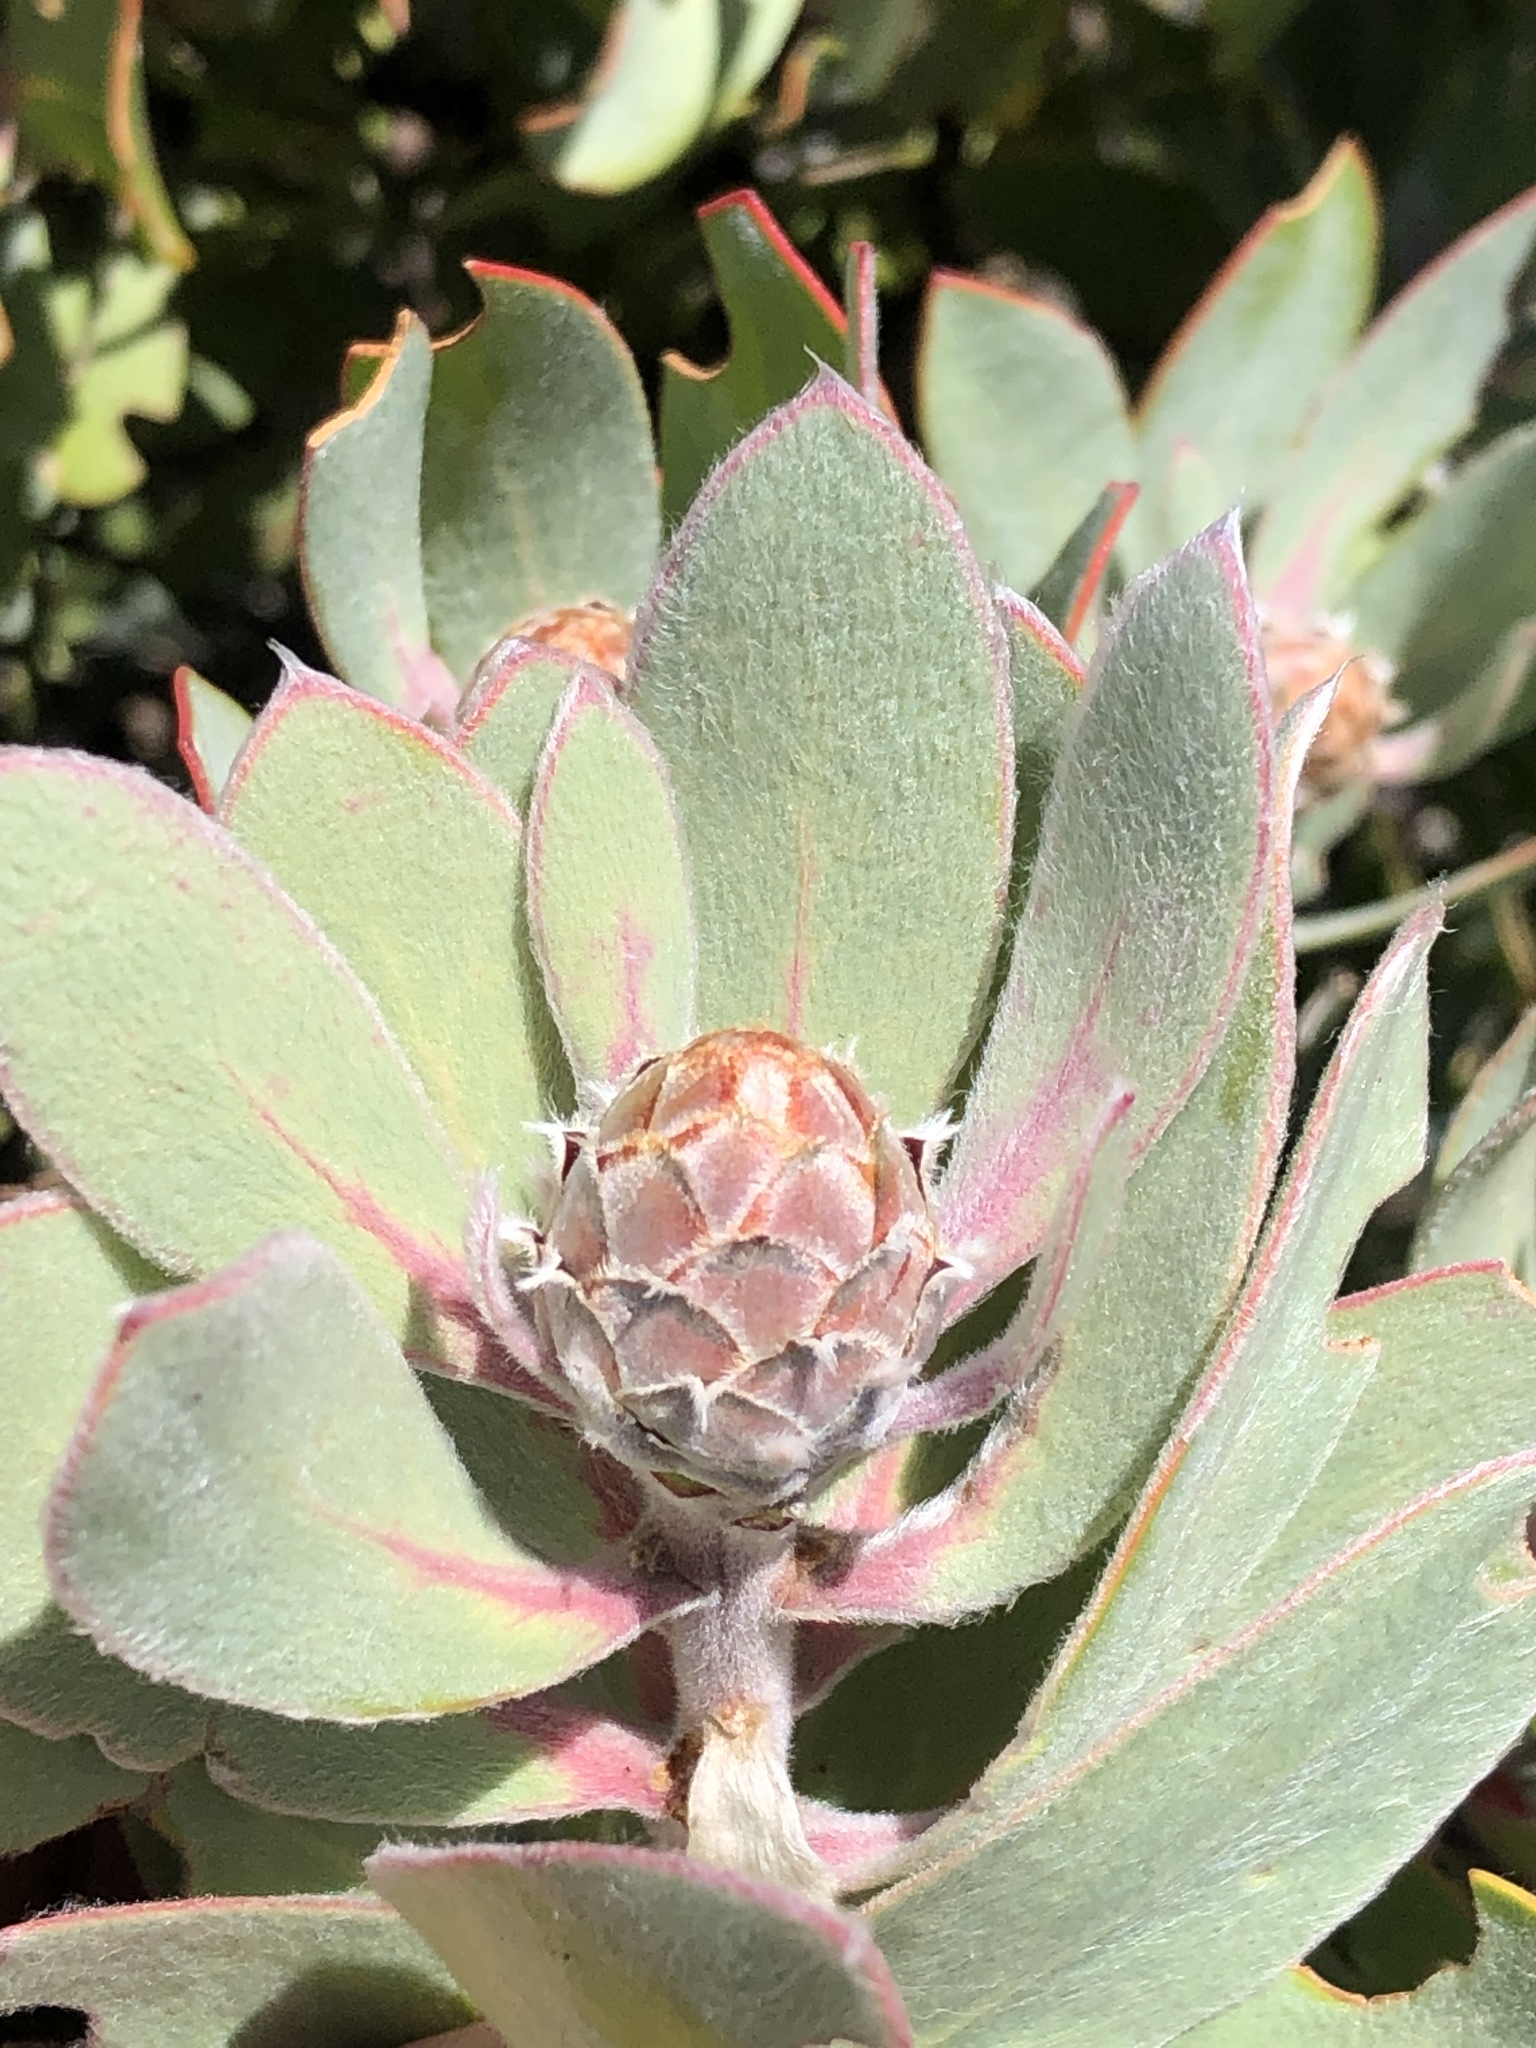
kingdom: Plantae
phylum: Tracheophyta
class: Magnoliopsida
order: Proteales
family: Proteaceae
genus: Protea
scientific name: Protea
